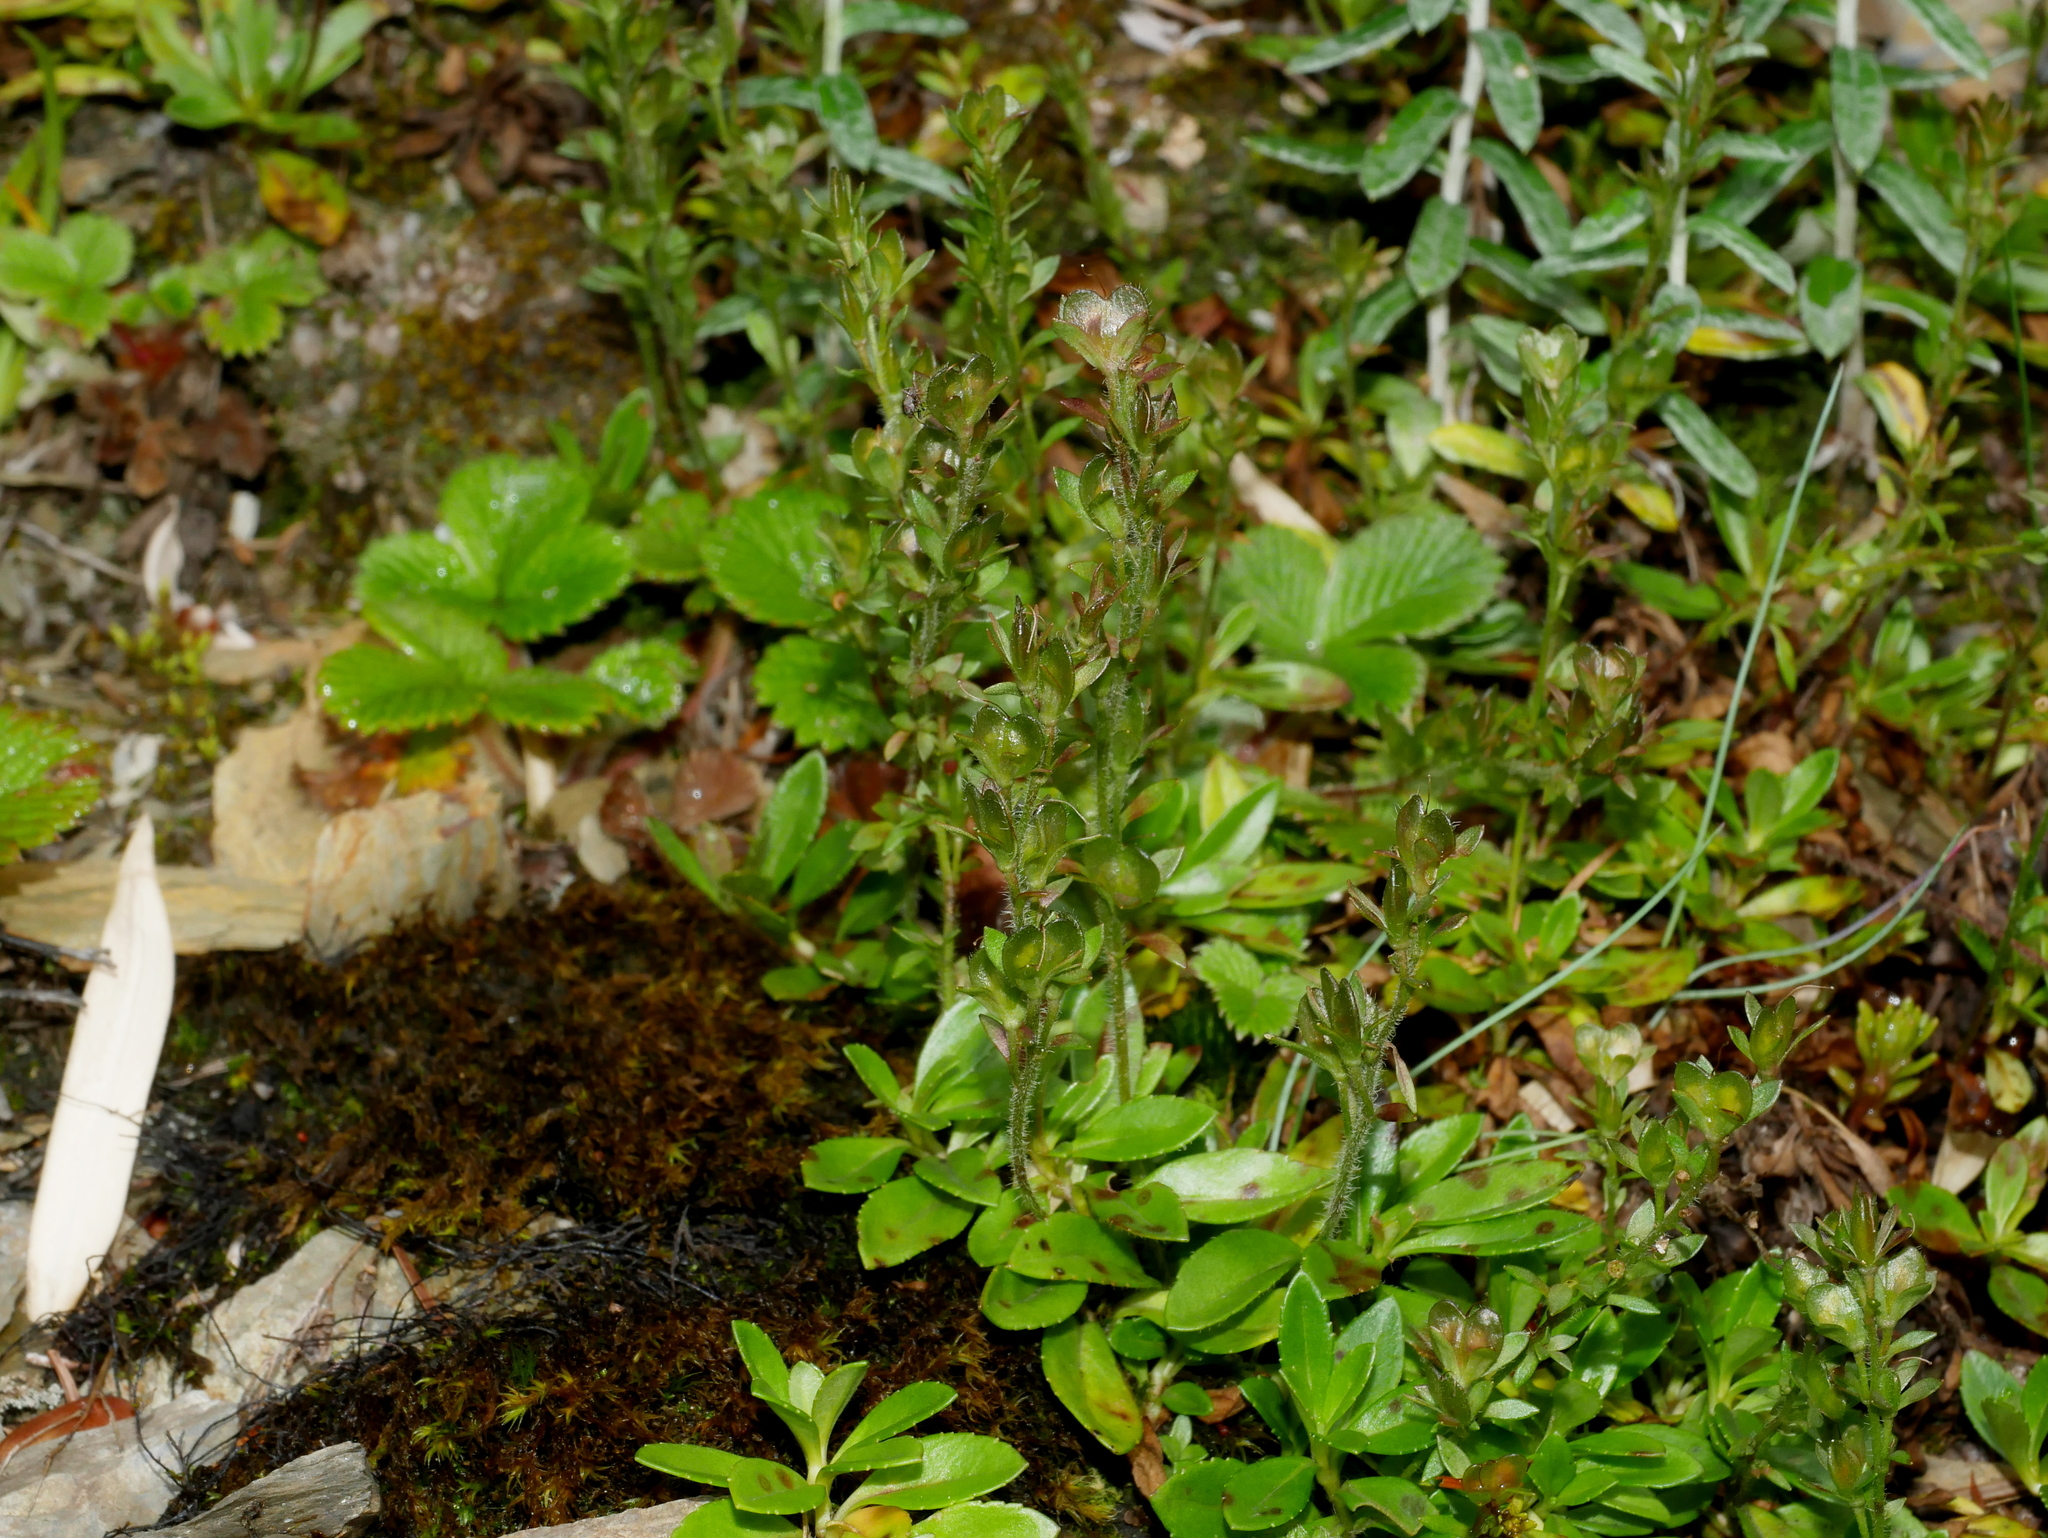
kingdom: Plantae
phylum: Tracheophyta
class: Magnoliopsida
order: Lamiales
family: Plantaginaceae
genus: Veronica
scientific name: Veronica morrisonicola
